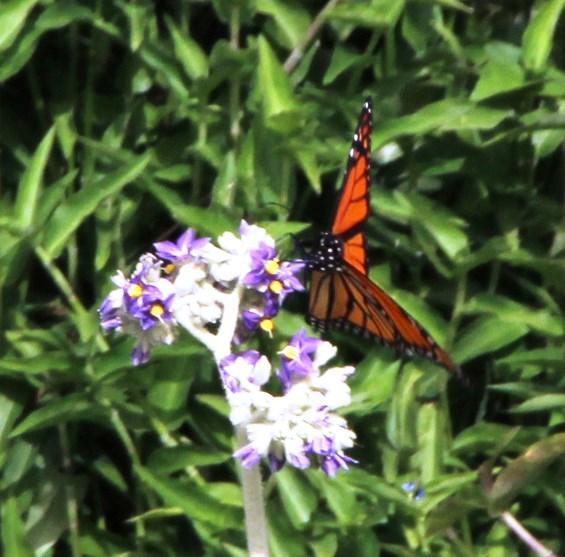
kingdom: Animalia
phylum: Arthropoda
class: Insecta
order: Lepidoptera
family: Nymphalidae
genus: Danaus
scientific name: Danaus plexippus
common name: Monarch
